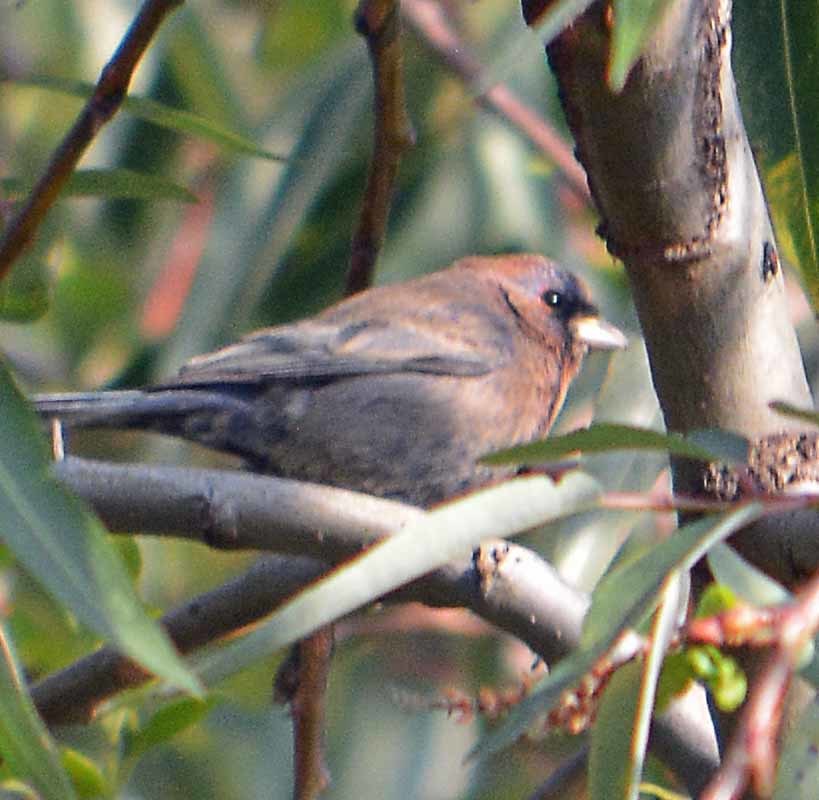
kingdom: Animalia
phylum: Chordata
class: Aves
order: Passeriformes
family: Cardinalidae
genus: Passerina
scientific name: Passerina versicolor
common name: Varied bunting
